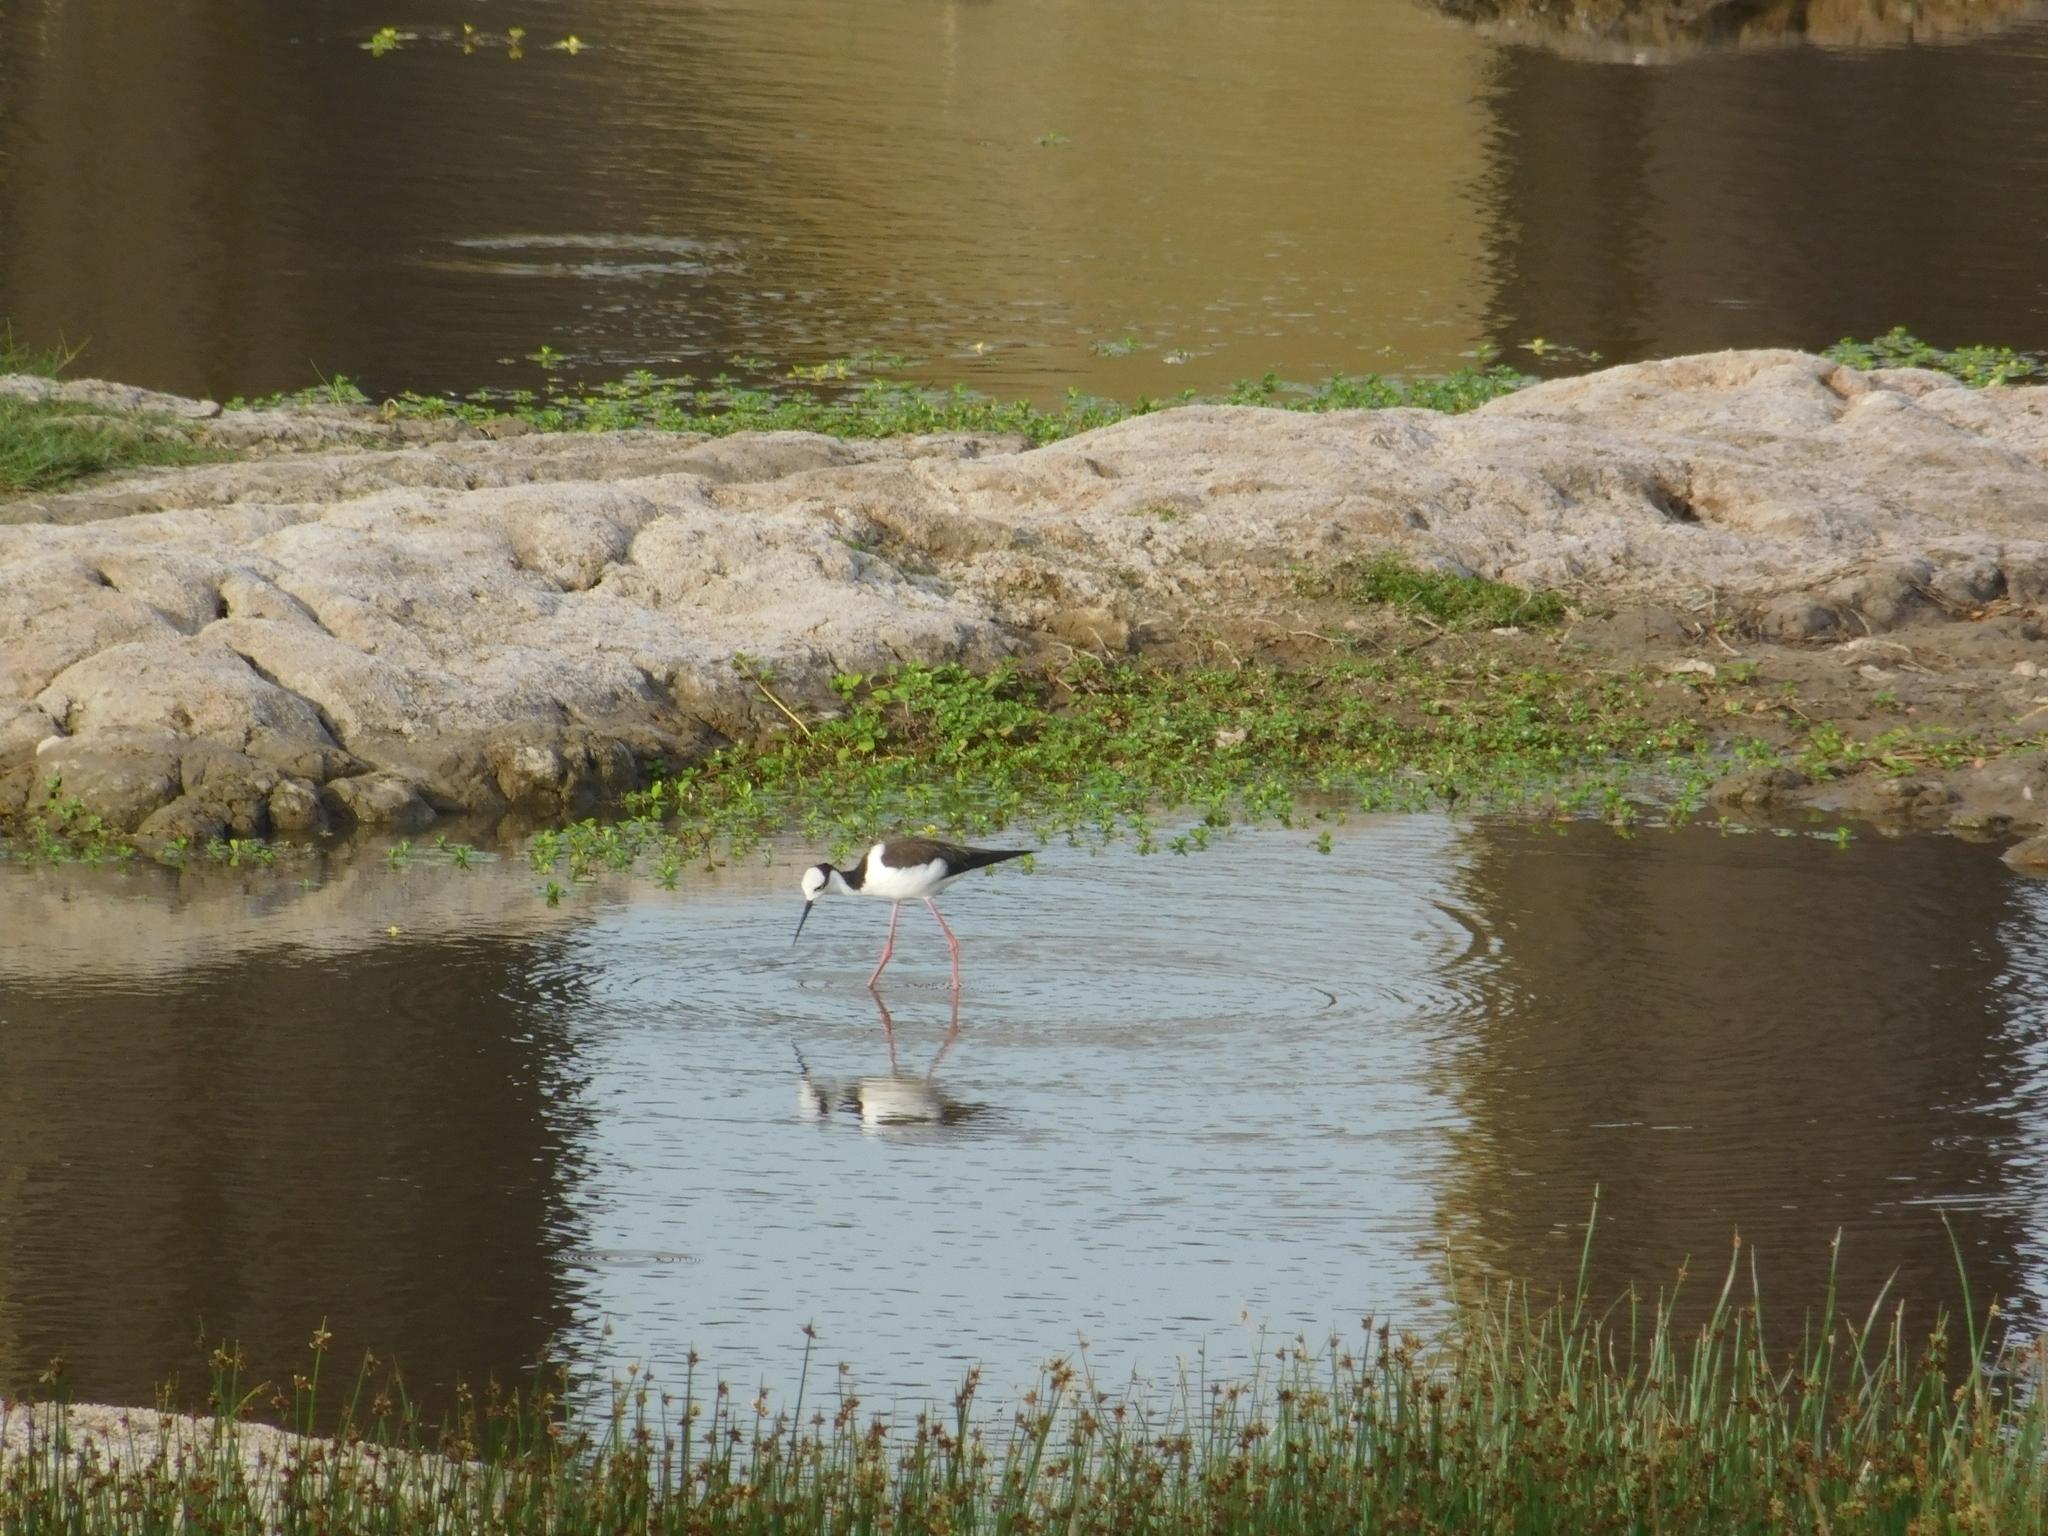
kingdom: Animalia
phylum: Chordata
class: Aves
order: Charadriiformes
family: Recurvirostridae
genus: Himantopus
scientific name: Himantopus mexicanus
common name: Black-necked stilt
